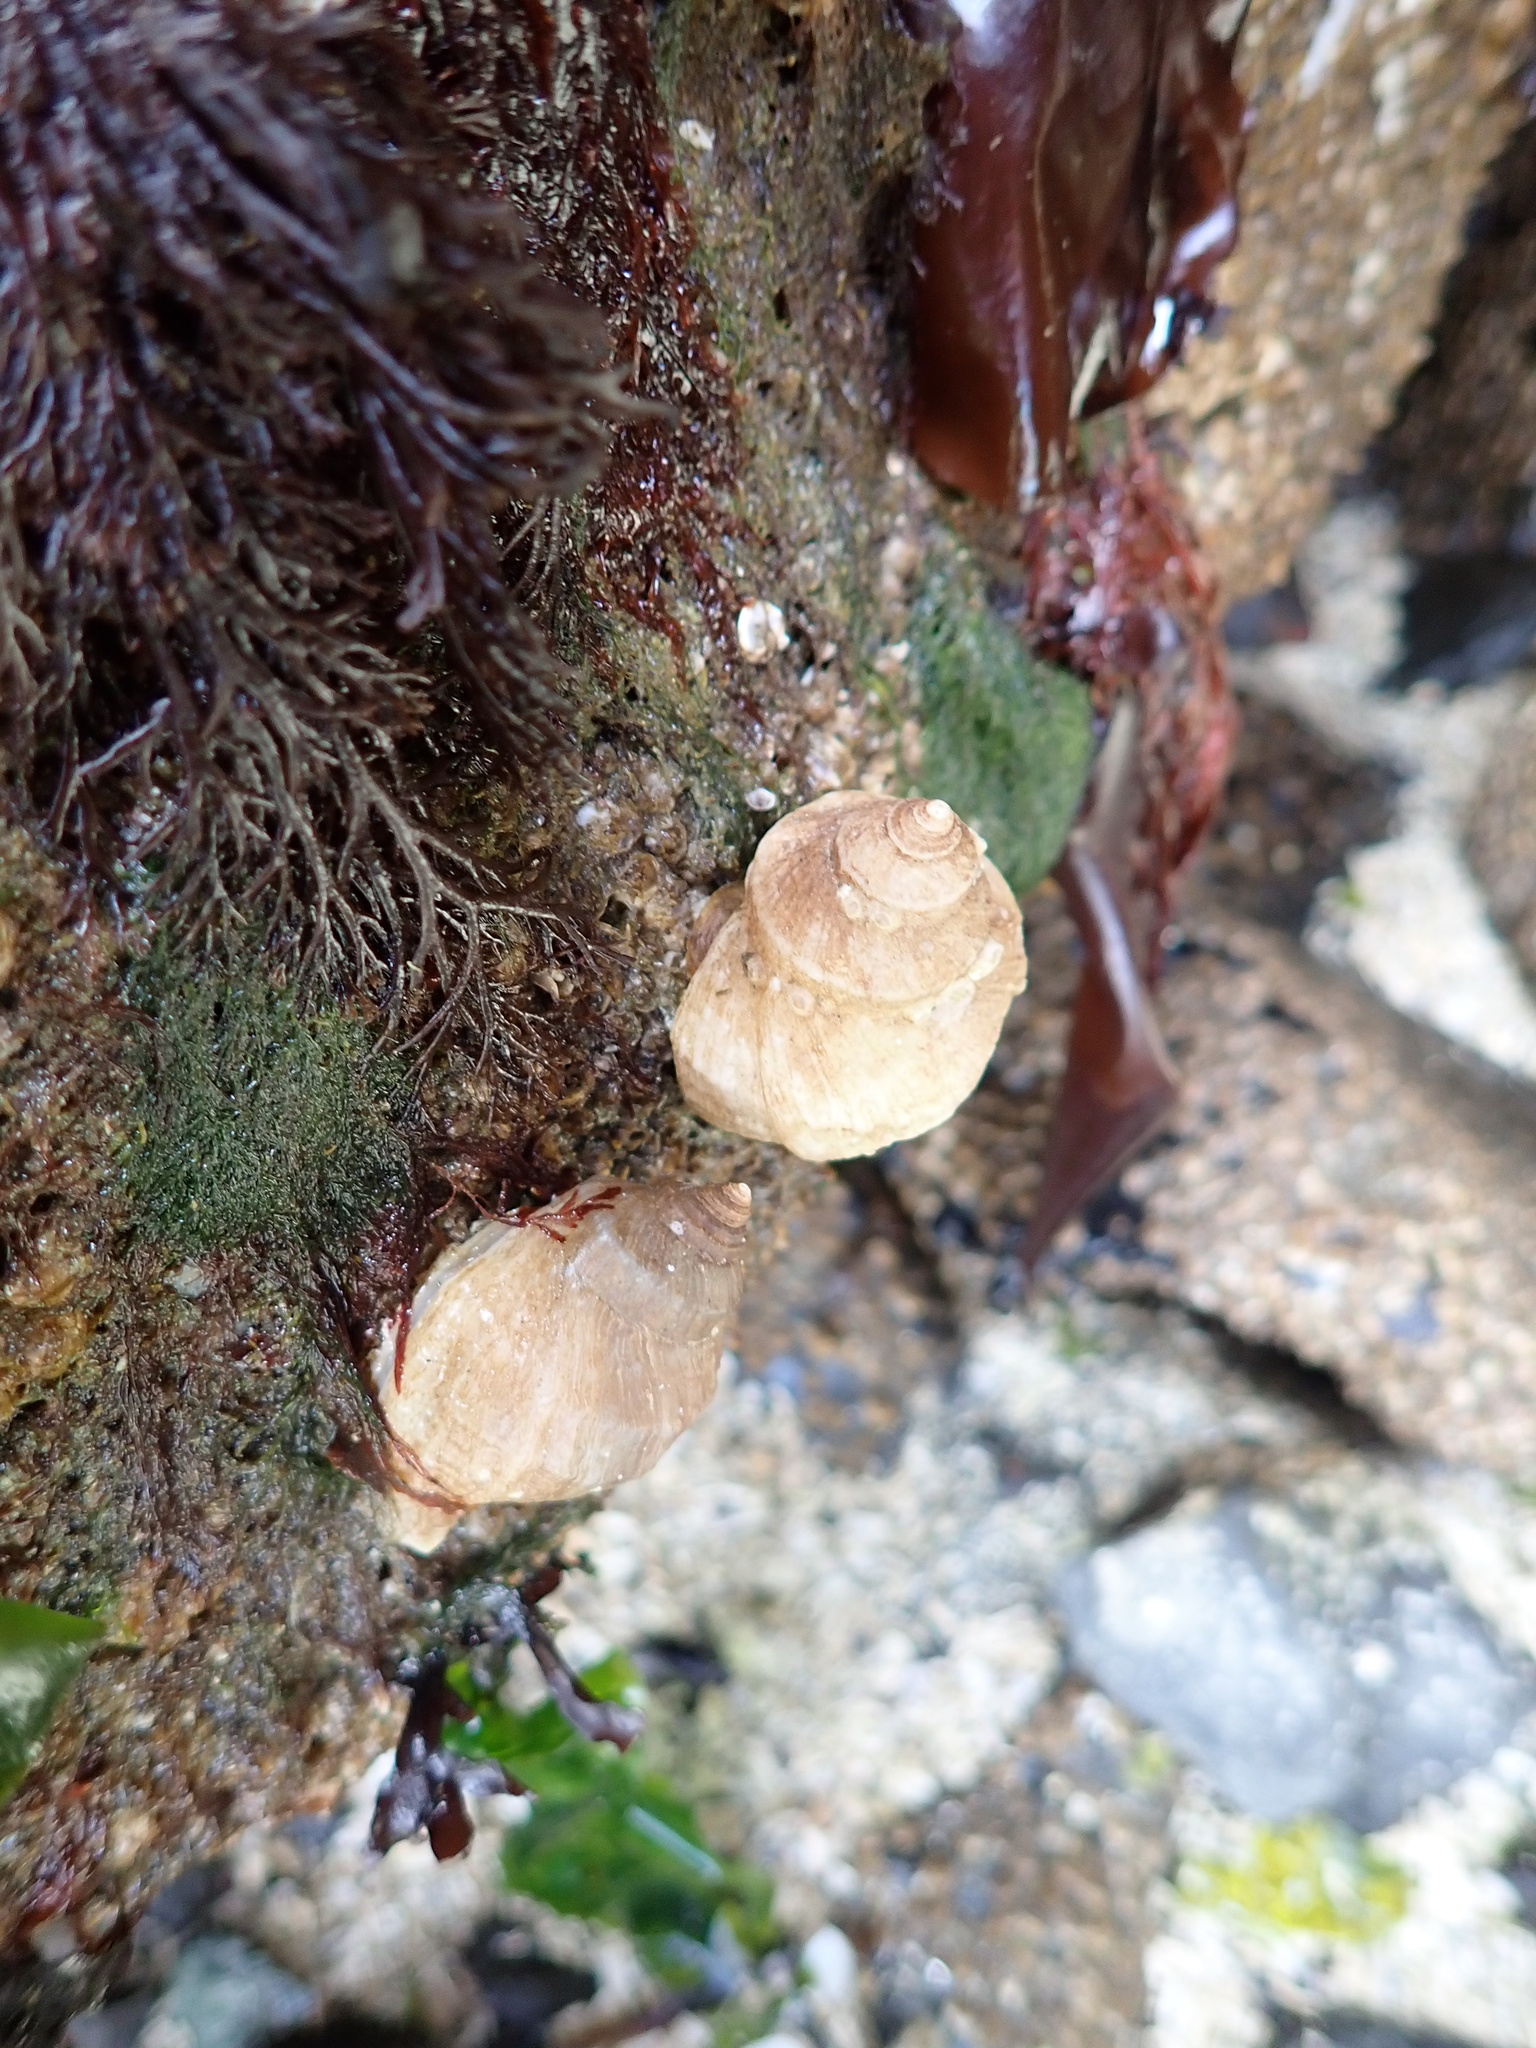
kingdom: Animalia
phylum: Mollusca
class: Gastropoda
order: Neogastropoda
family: Muricidae
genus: Nucella
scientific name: Nucella lamellosa
